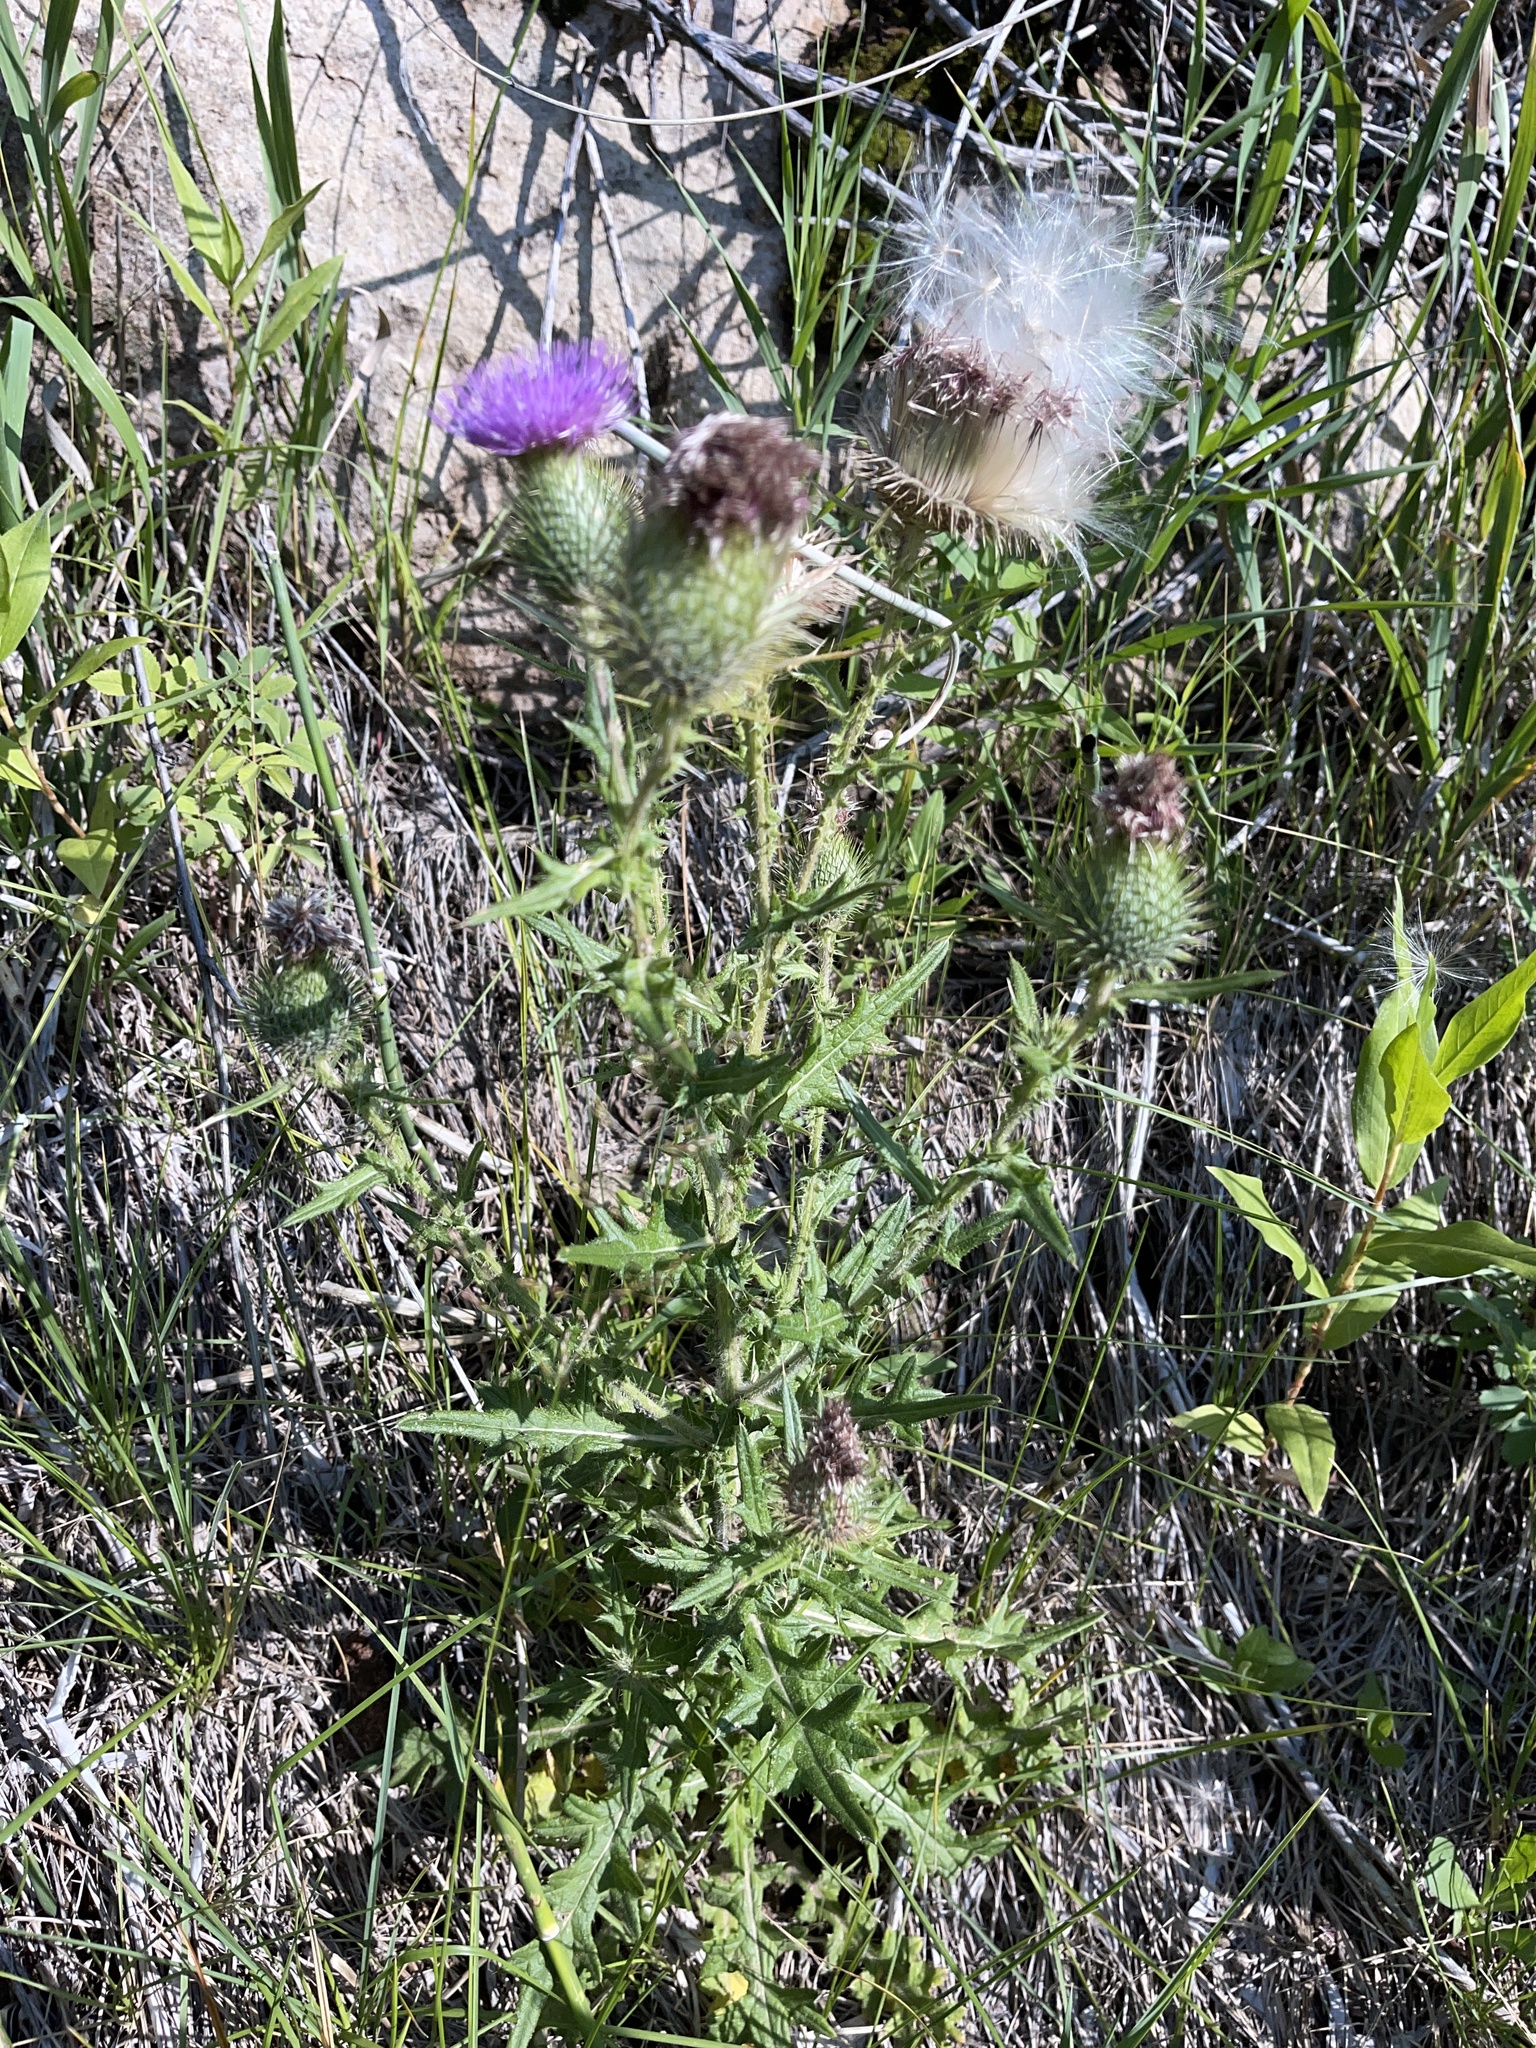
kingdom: Plantae
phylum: Tracheophyta
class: Magnoliopsida
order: Asterales
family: Asteraceae
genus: Cirsium
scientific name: Cirsium vulgare
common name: Bull thistle
